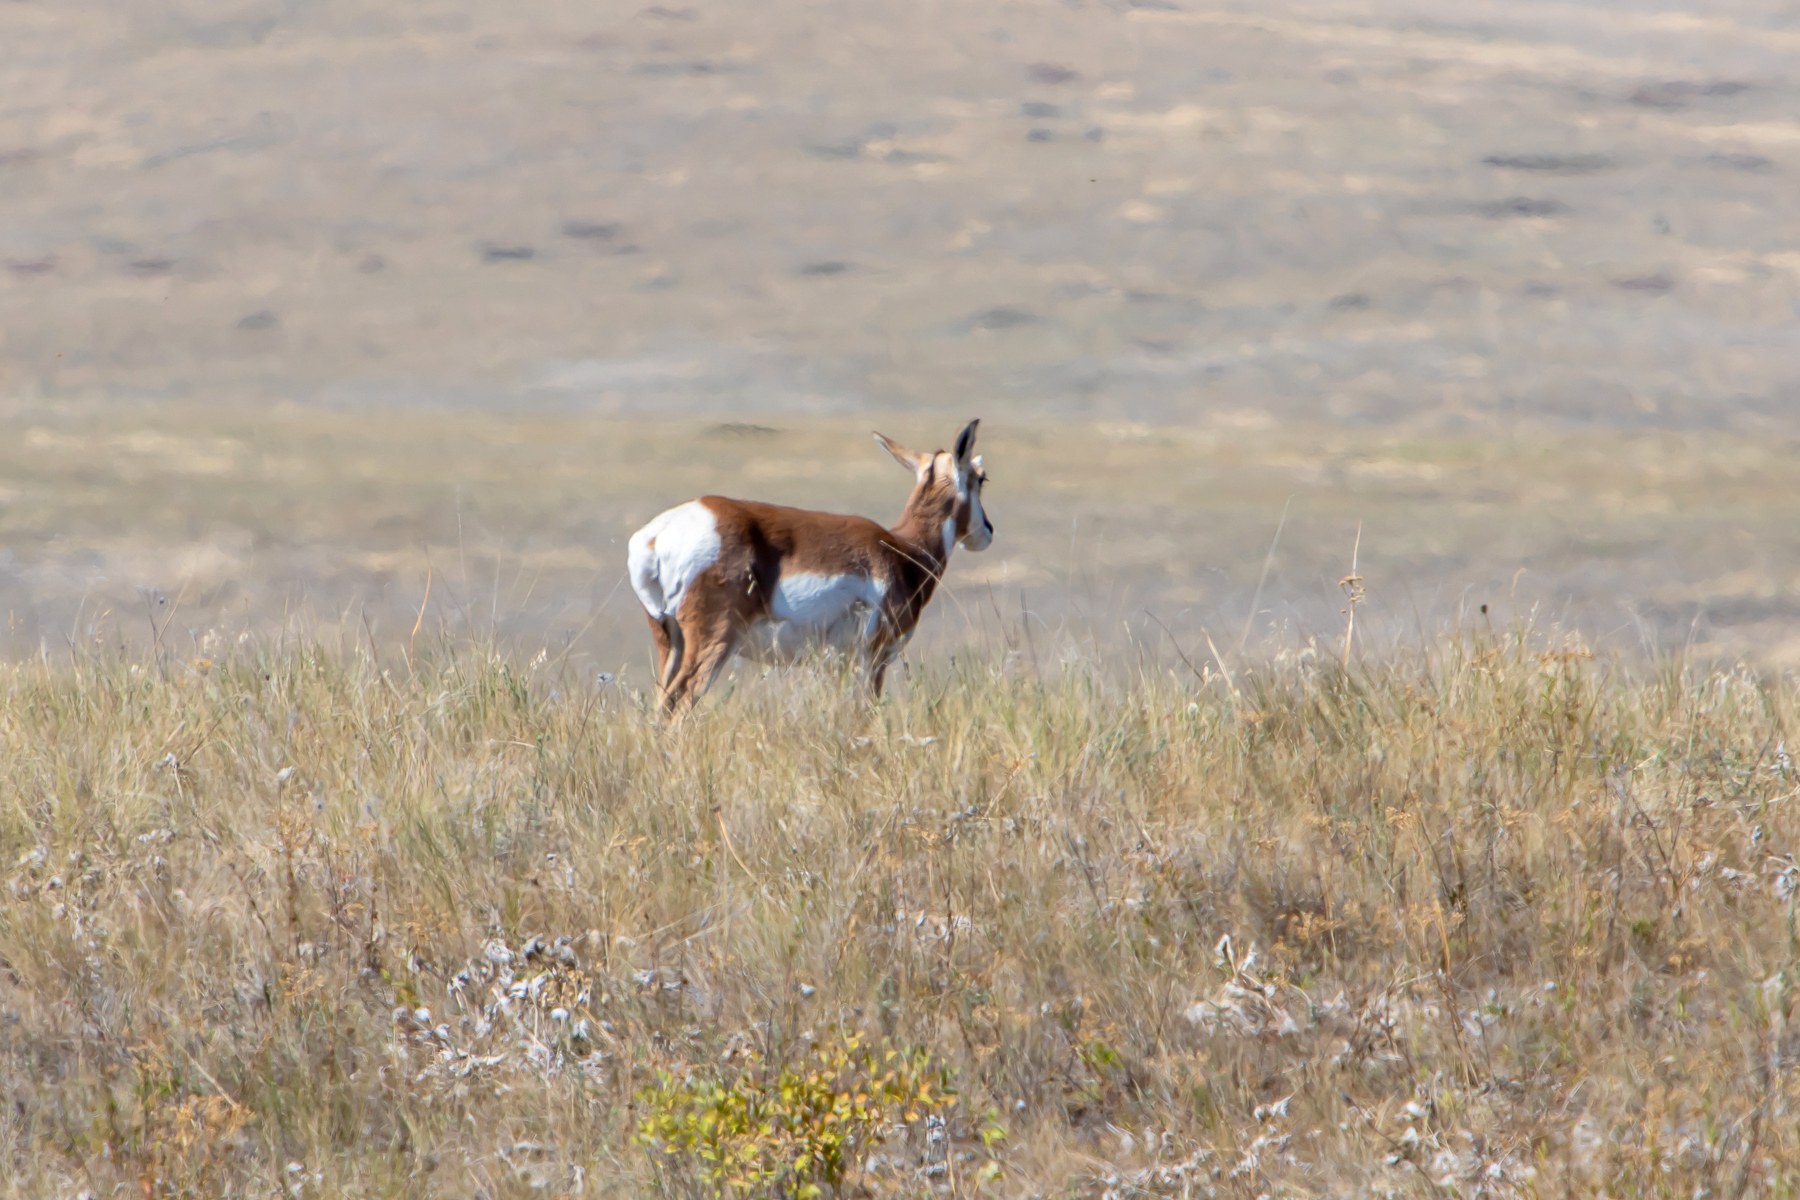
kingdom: Animalia
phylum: Chordata
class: Mammalia
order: Artiodactyla
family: Antilocapridae
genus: Antilocapra
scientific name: Antilocapra americana
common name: Pronghorn
